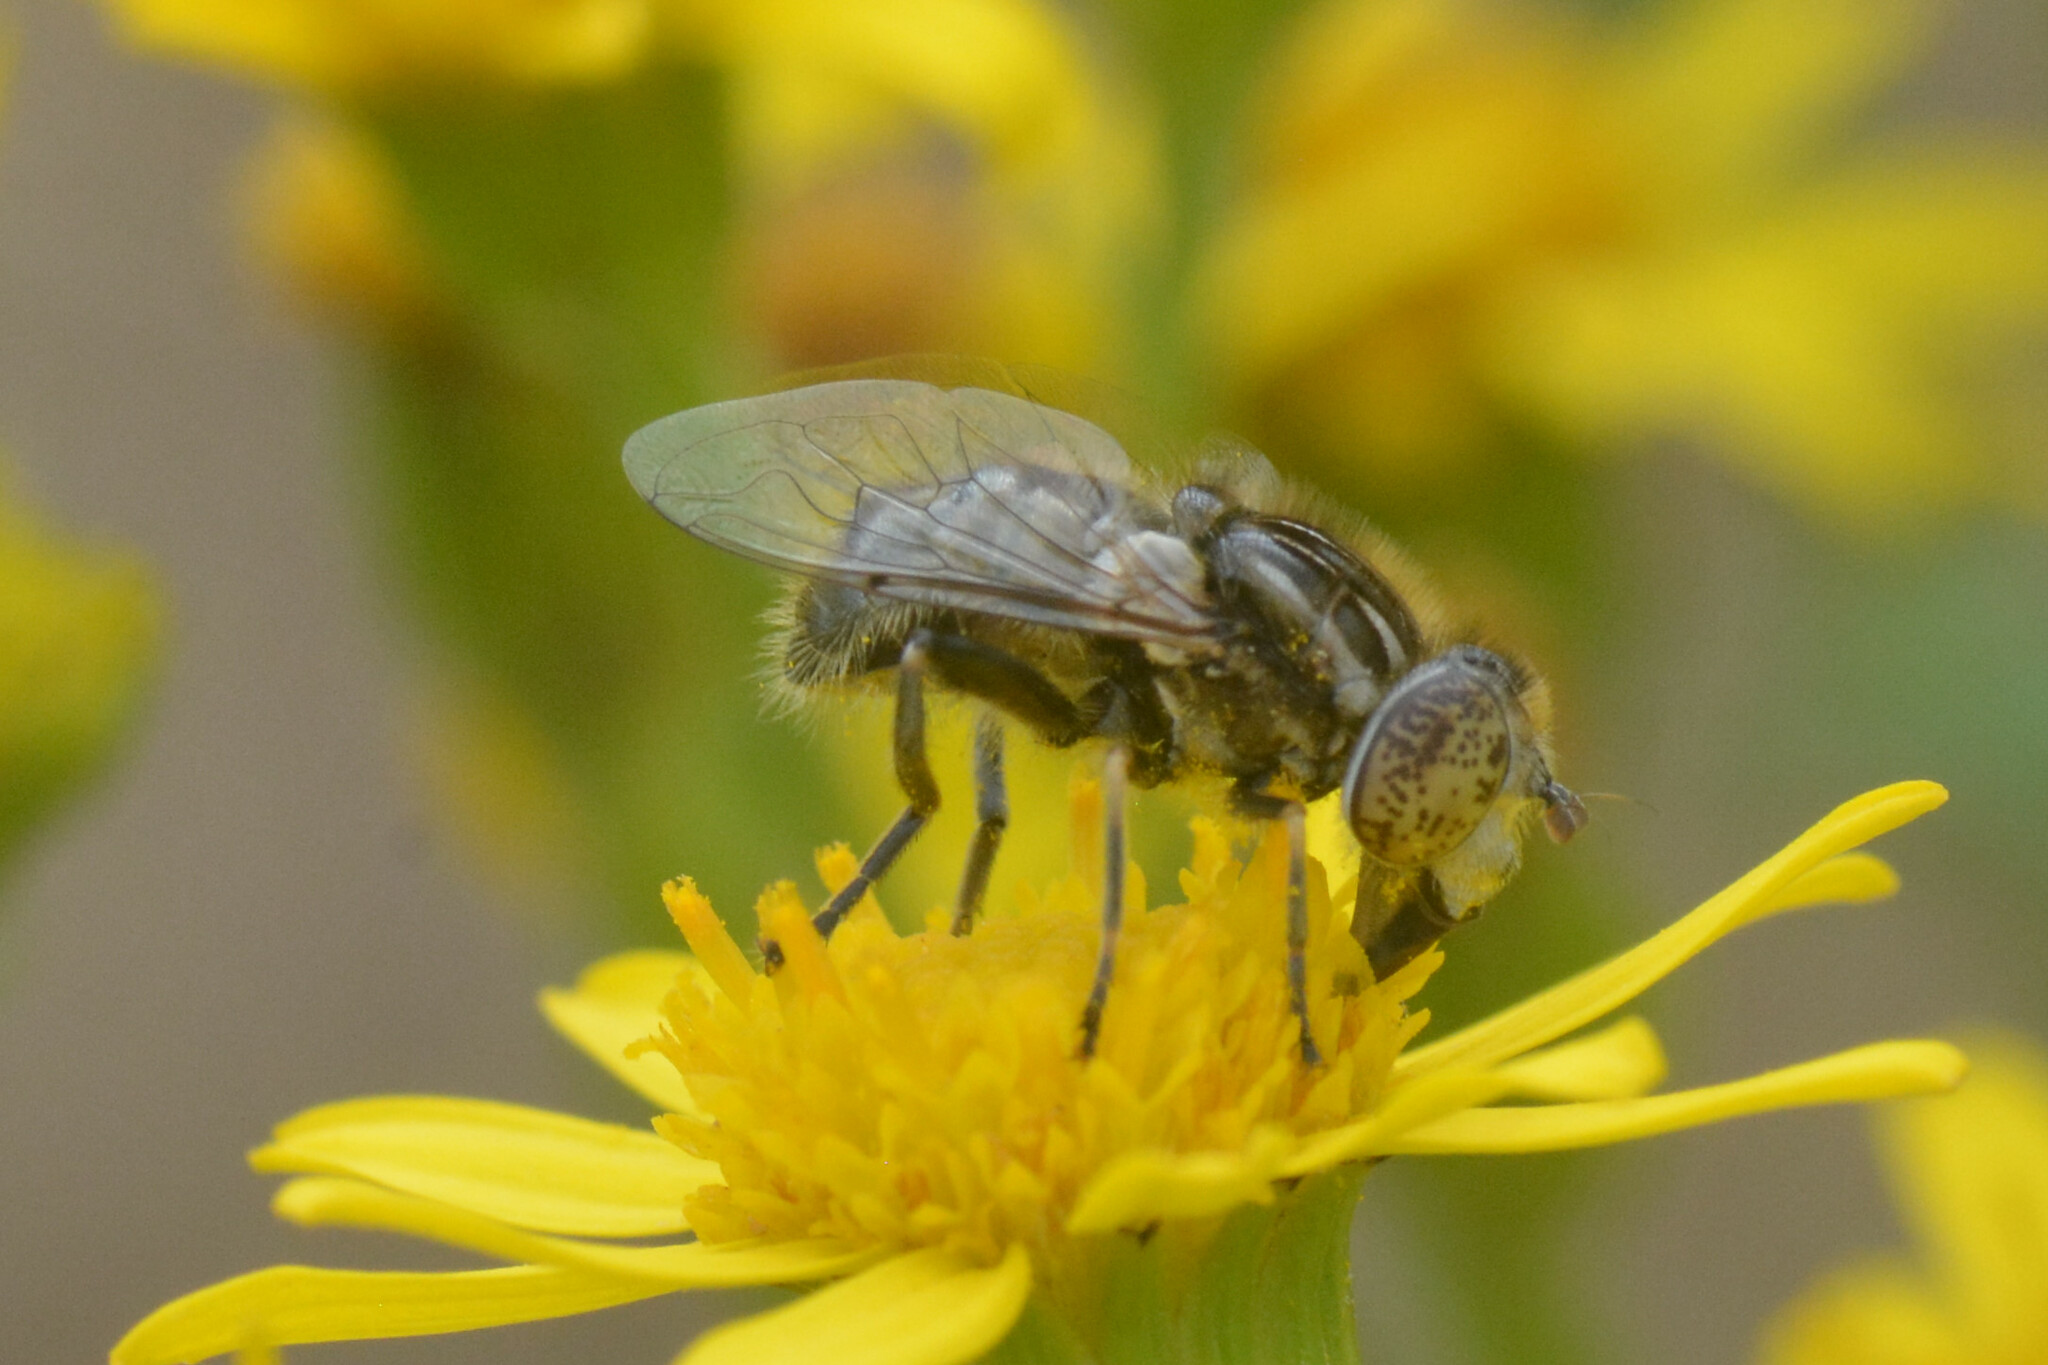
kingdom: Animalia
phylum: Arthropoda
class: Insecta
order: Diptera
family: Syrphidae
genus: Eristalinus
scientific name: Eristalinus sepulchralis
